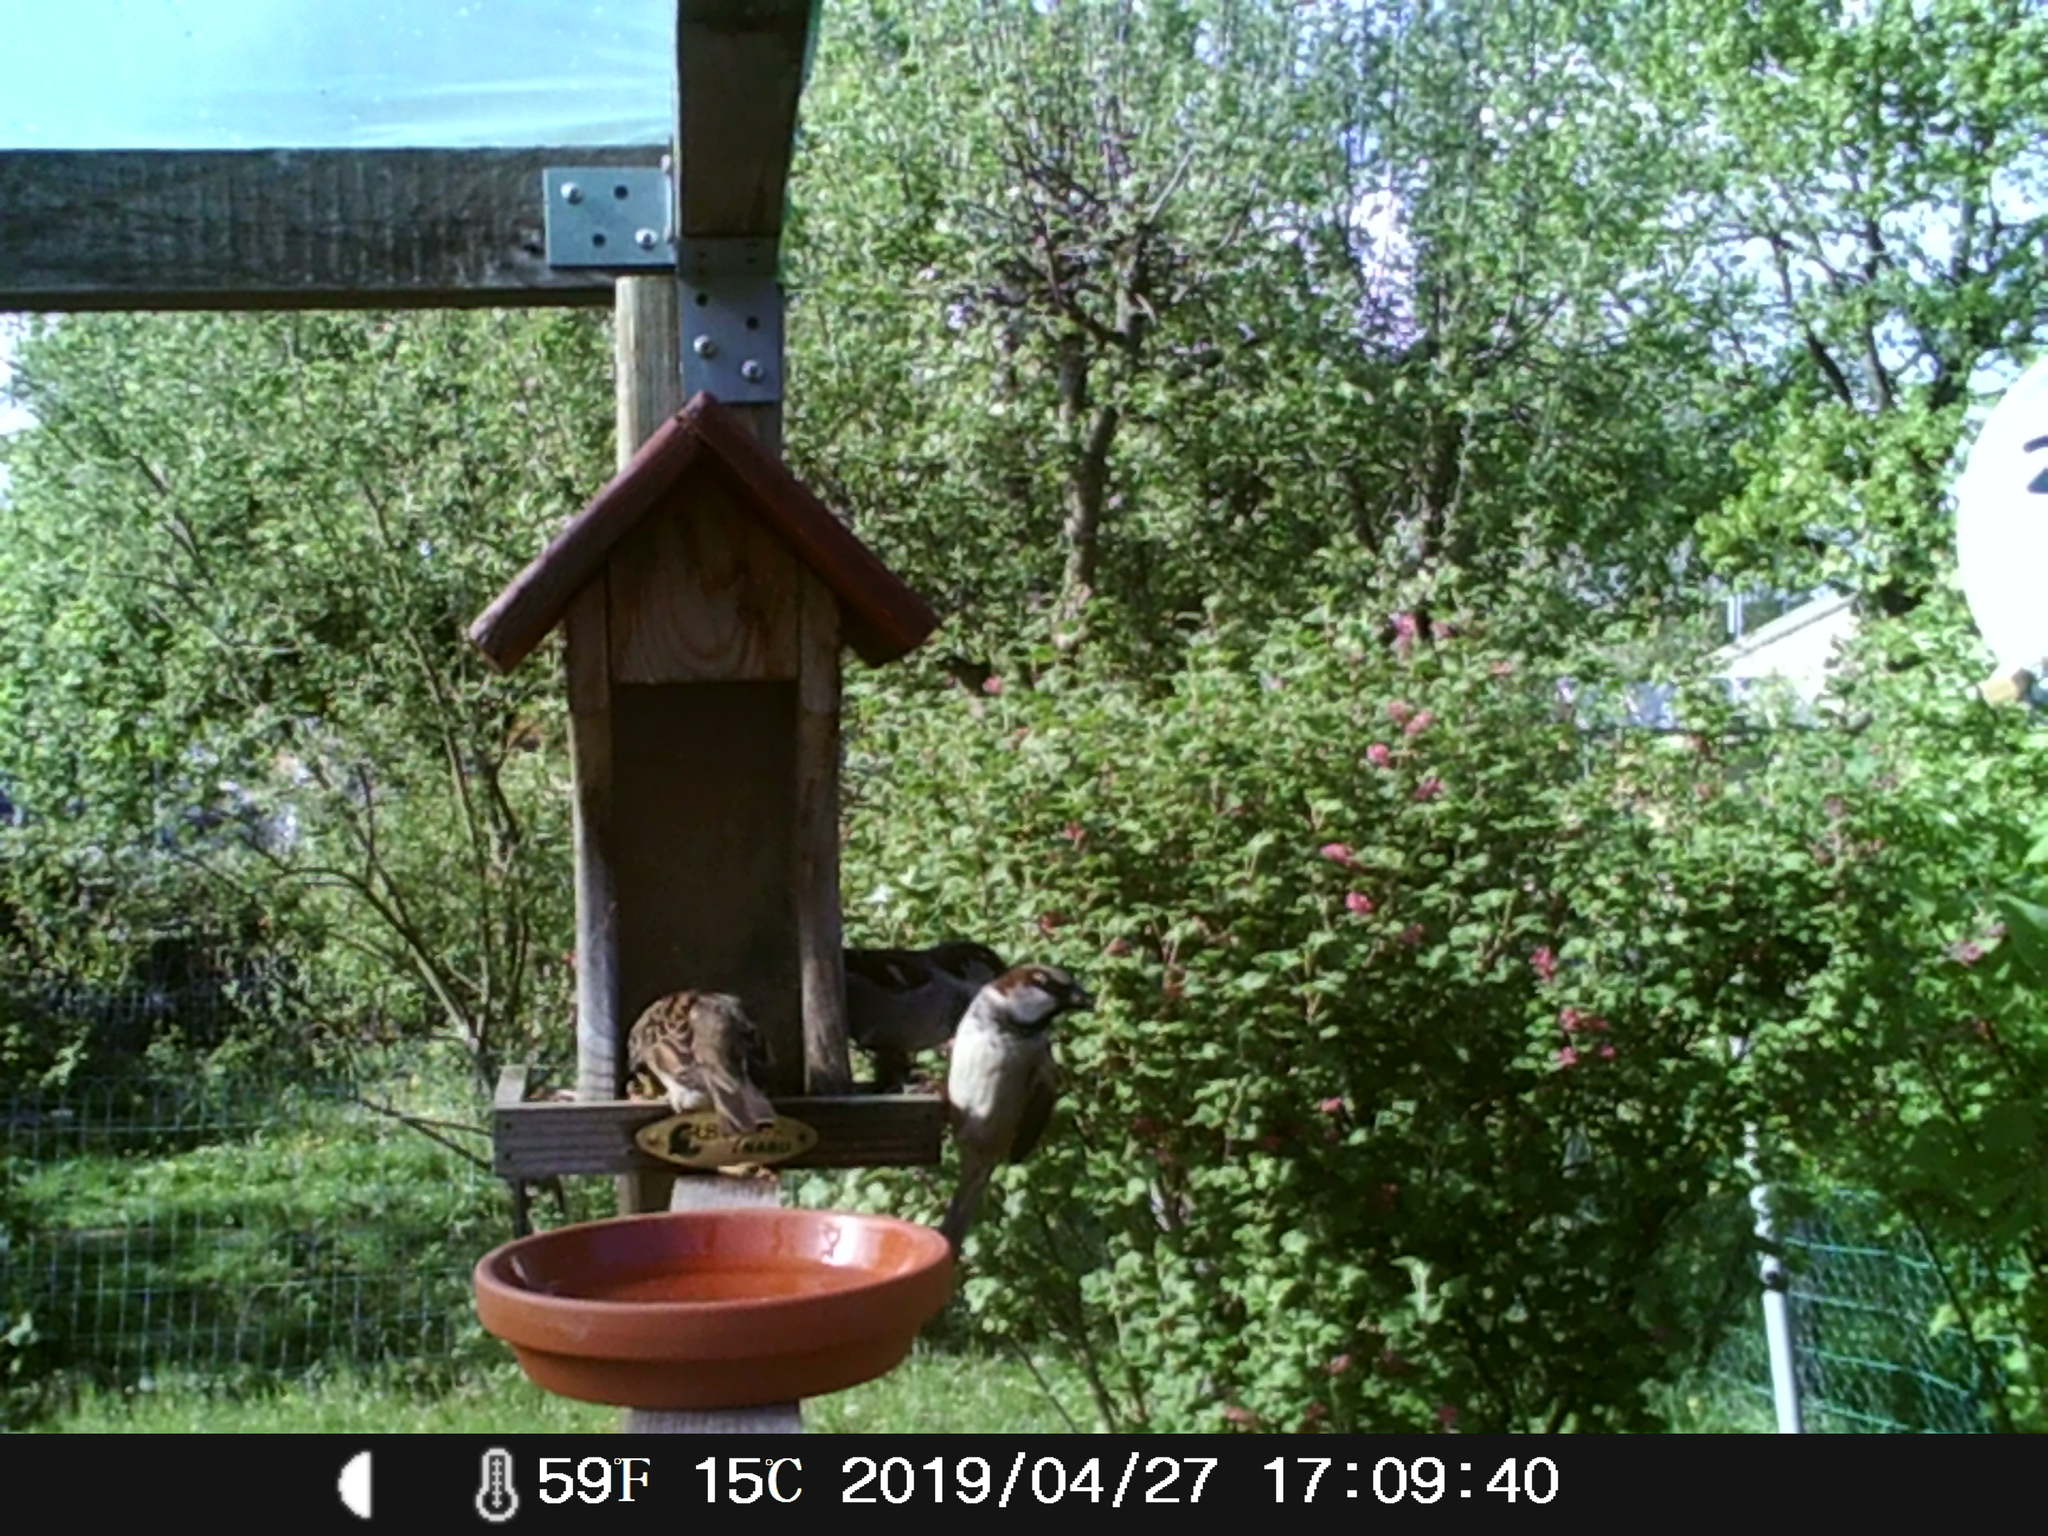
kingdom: Animalia
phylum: Chordata
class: Aves
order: Passeriformes
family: Passeridae
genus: Passer
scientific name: Passer domesticus
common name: House sparrow
